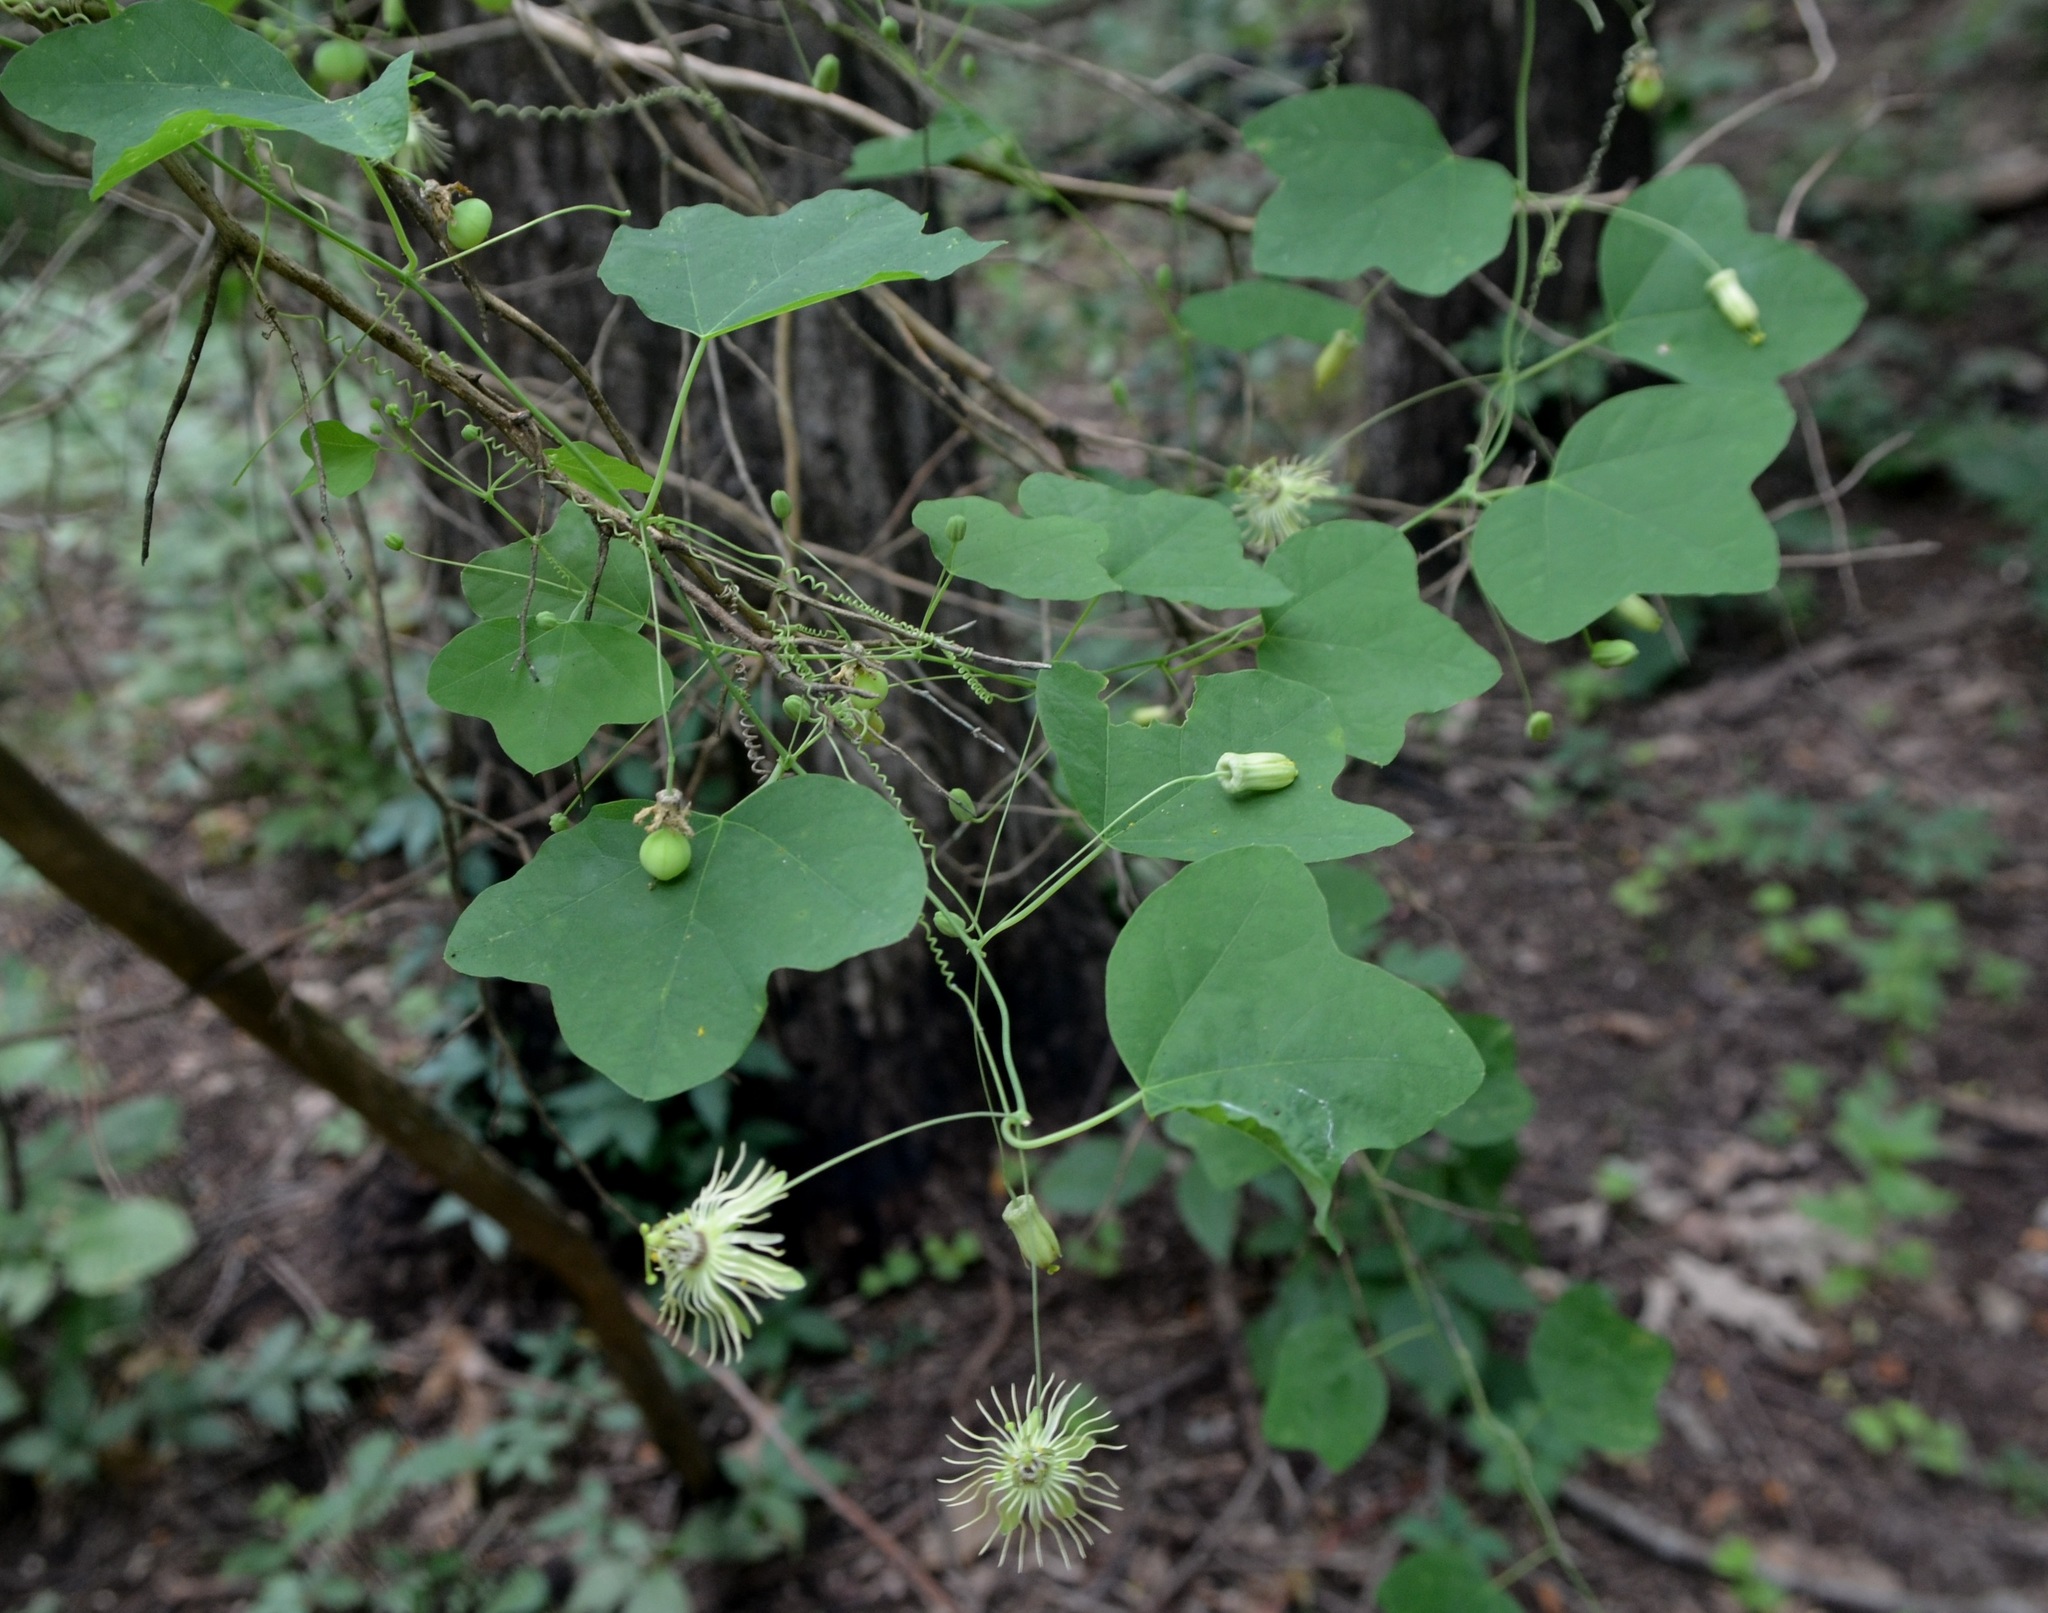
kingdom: Plantae
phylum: Tracheophyta
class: Magnoliopsida
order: Malpighiales
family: Passifloraceae
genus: Passiflora
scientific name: Passiflora lutea
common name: Yellow passionflower
